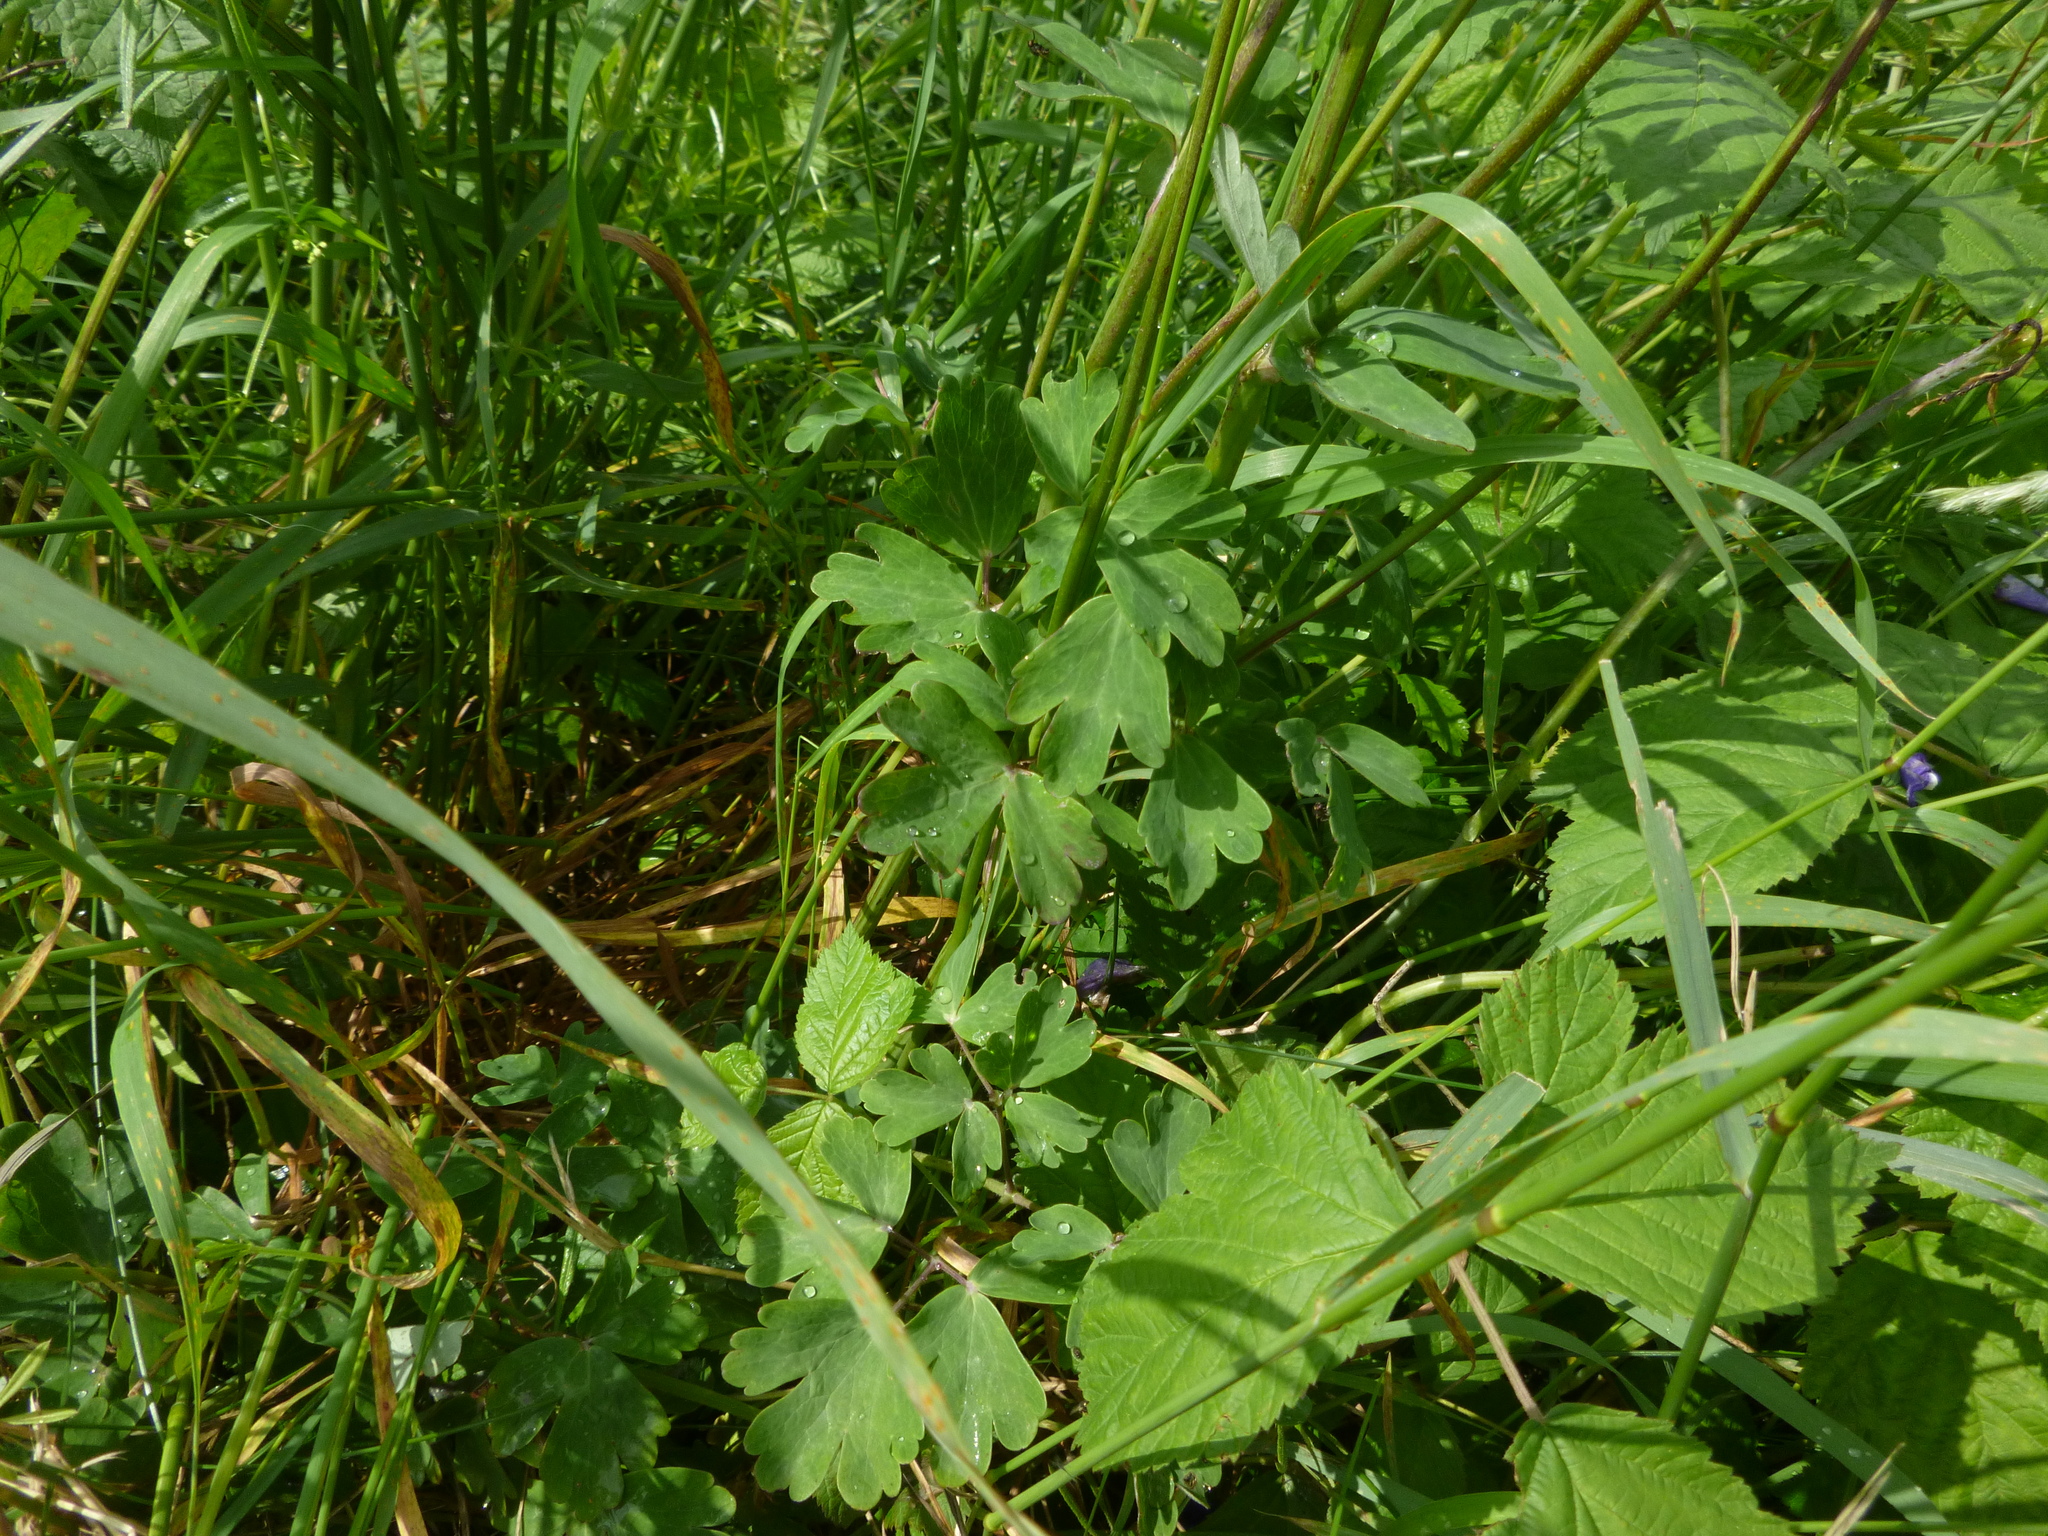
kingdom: Plantae
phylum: Tracheophyta
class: Magnoliopsida
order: Ranunculales
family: Ranunculaceae
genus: Aquilegia
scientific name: Aquilegia vulgaris
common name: Columbine
